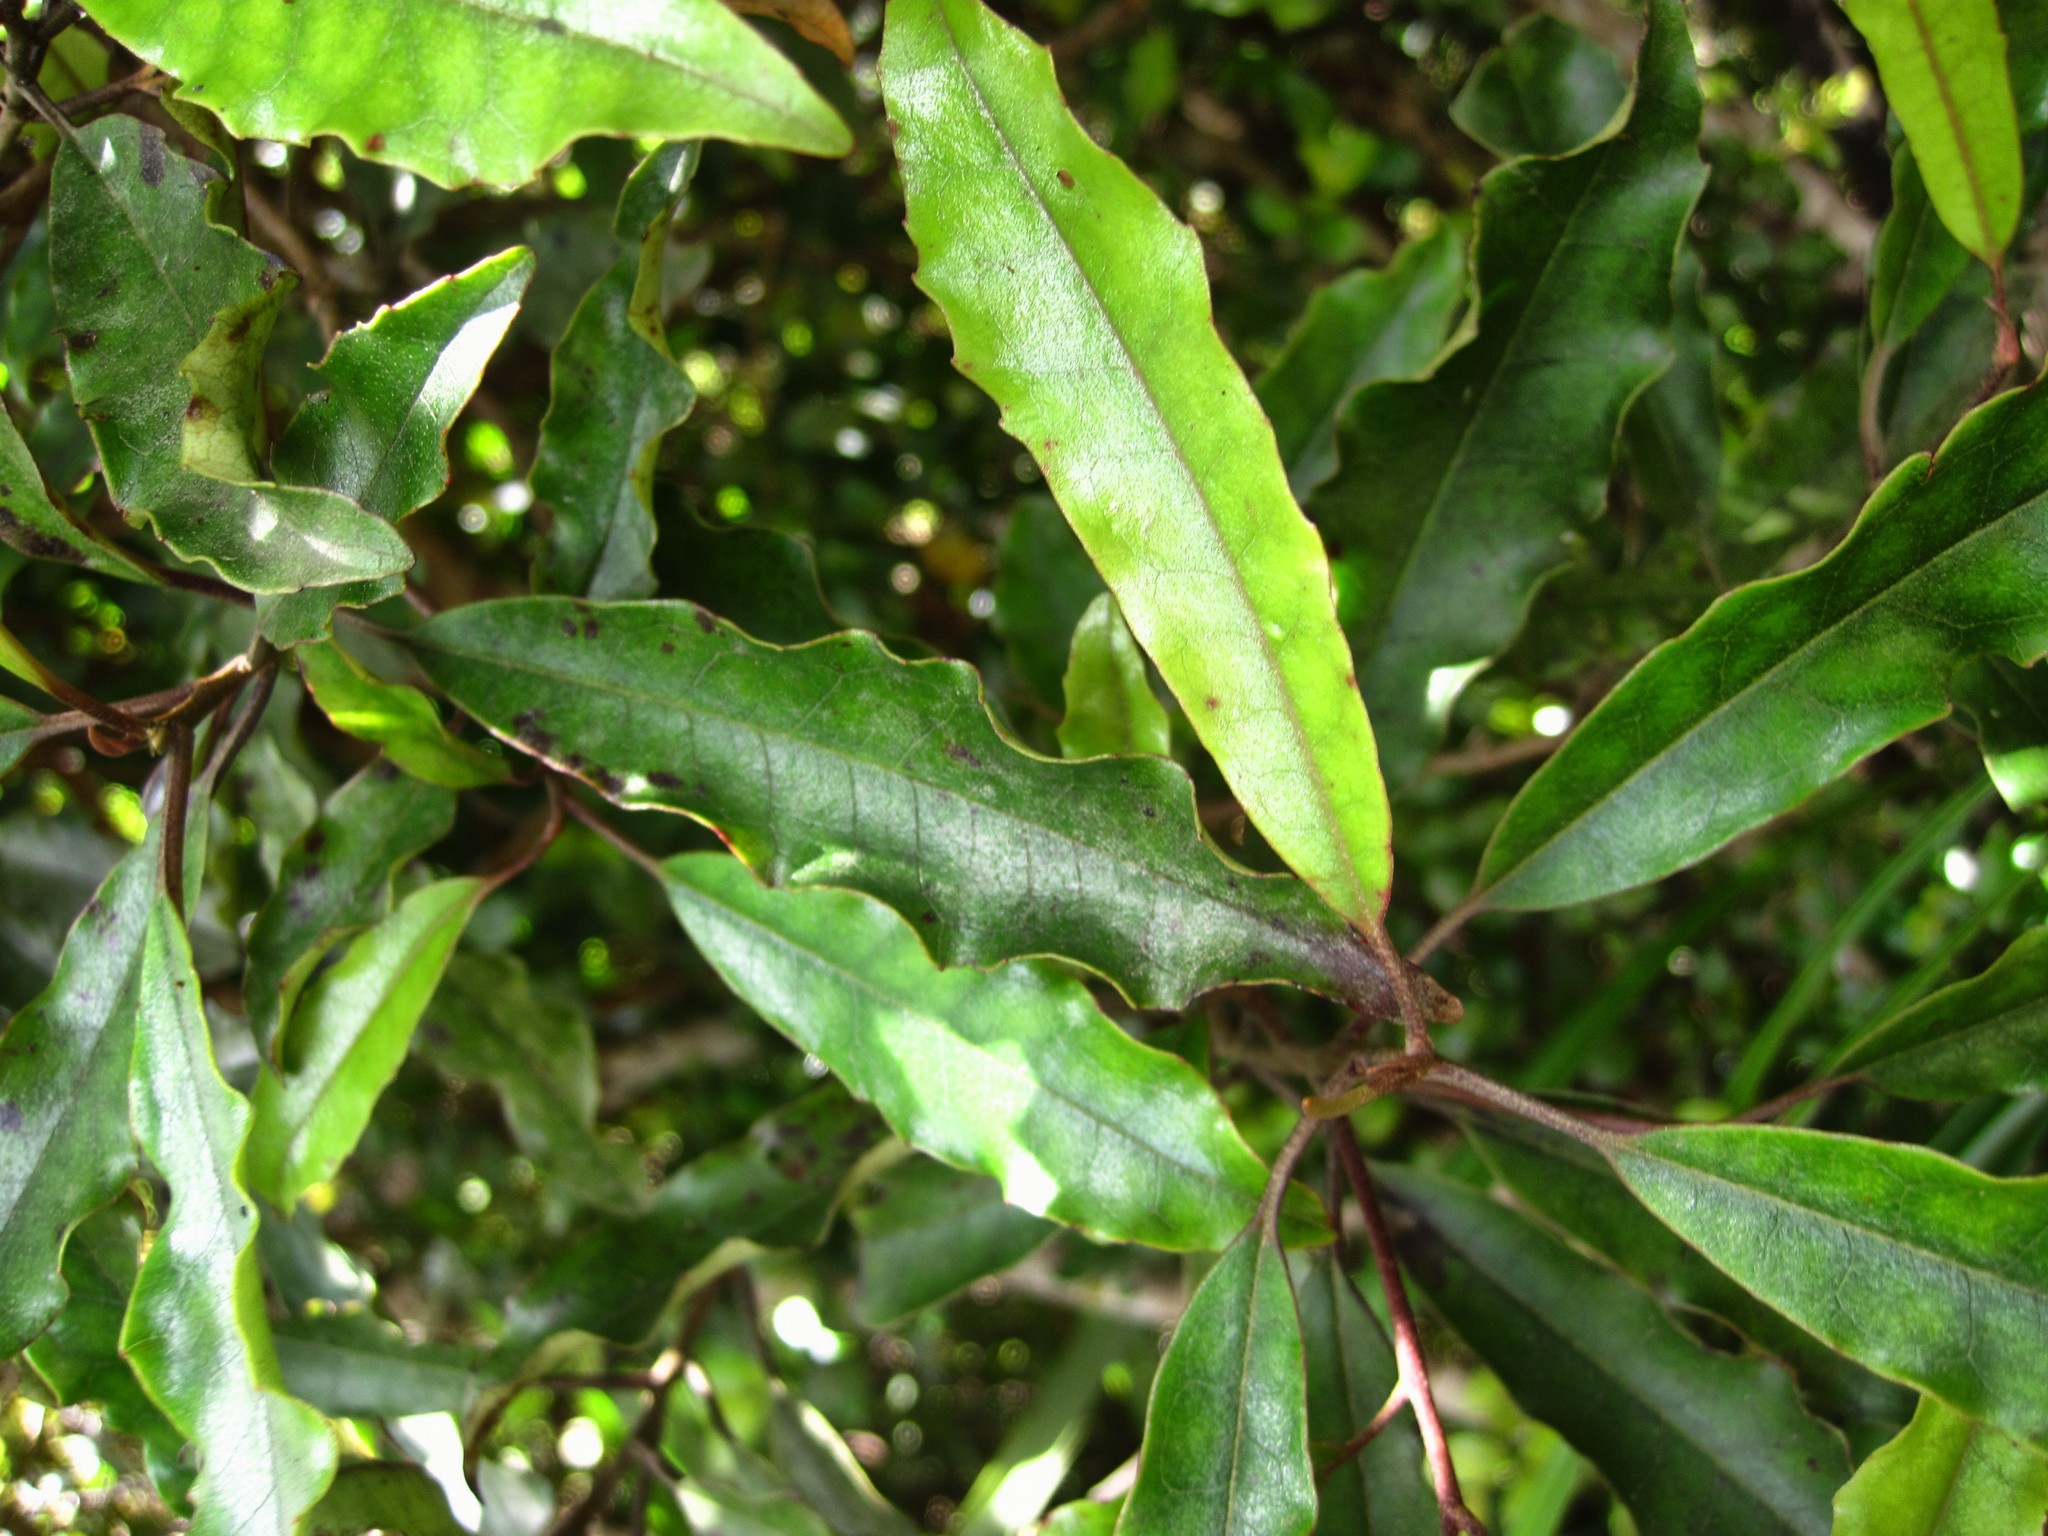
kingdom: Plantae
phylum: Tracheophyta
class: Magnoliopsida
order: Paracryphiales
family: Paracryphiaceae
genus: Quintinia
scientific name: Quintinia serrata
